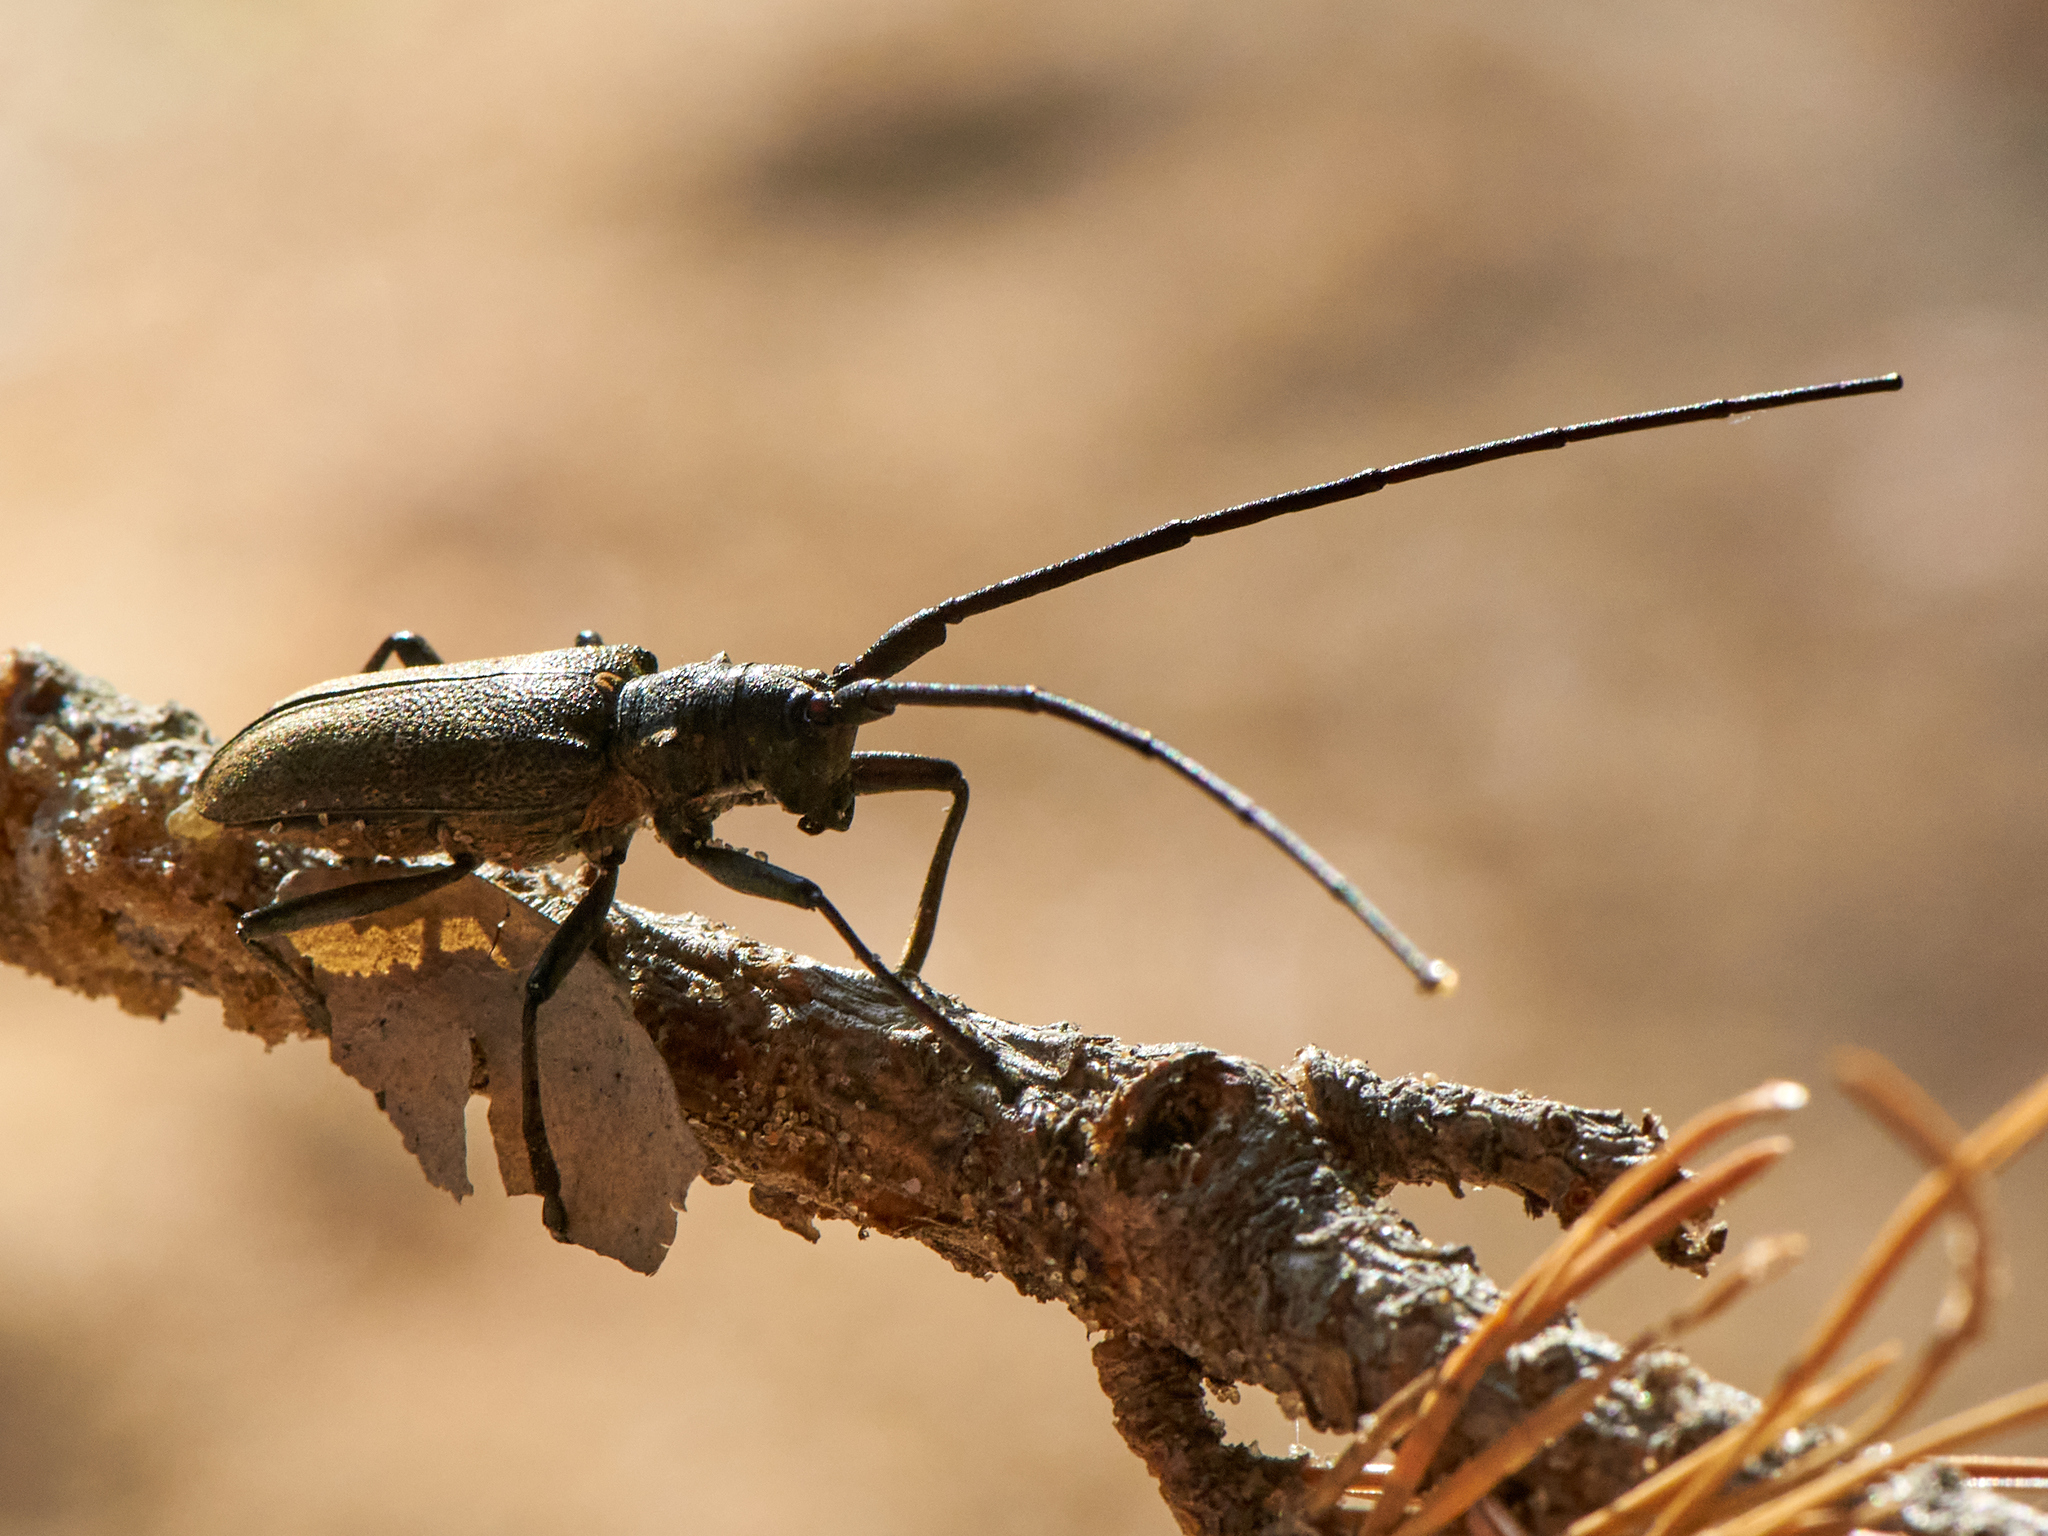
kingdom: Animalia
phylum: Arthropoda
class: Insecta
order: Coleoptera
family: Cerambycidae
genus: Monochamus
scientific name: Monochamus galloprovincialis
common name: Pine sawyer
